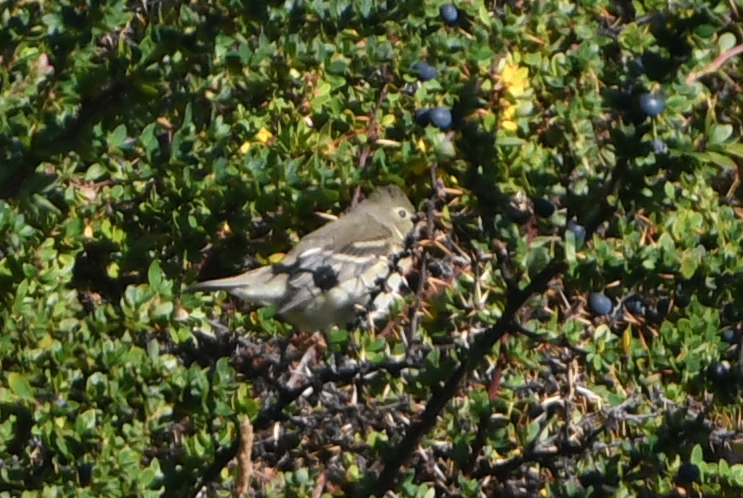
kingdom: Animalia
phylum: Chordata
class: Aves
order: Passeriformes
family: Tyrannidae
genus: Elaenia
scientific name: Elaenia albiceps
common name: White-crested elaenia
